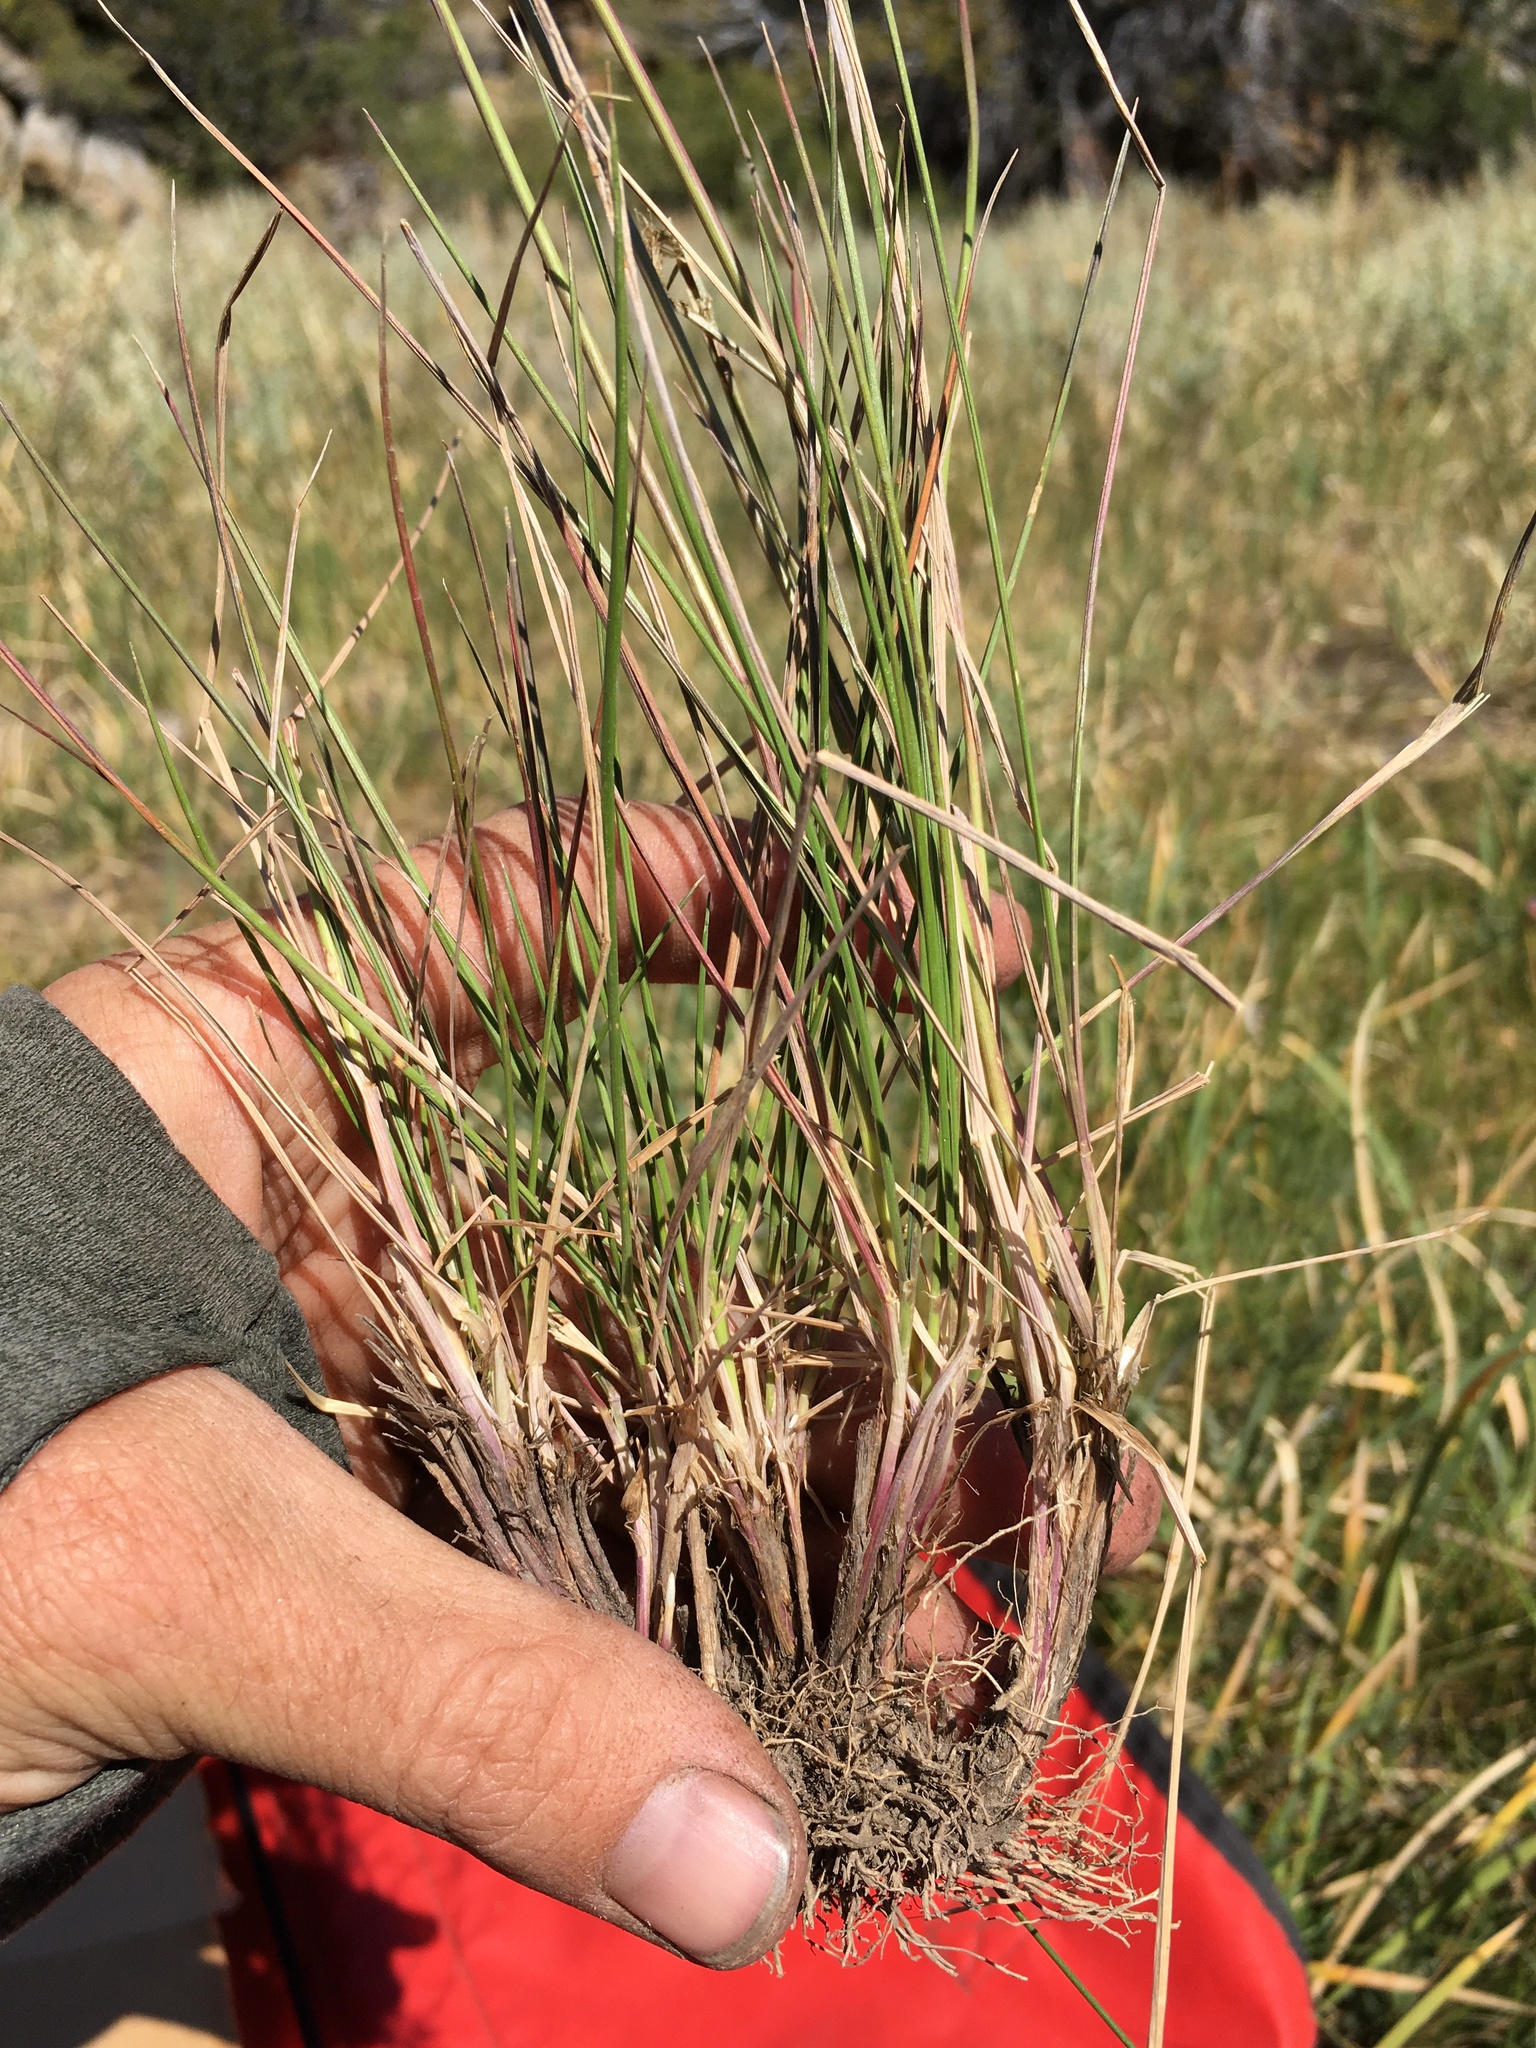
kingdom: Plantae
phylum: Tracheophyta
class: Liliopsida
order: Poales
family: Poaceae
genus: Elymus
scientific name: Elymus violaceus
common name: Arctic wheatgrass
